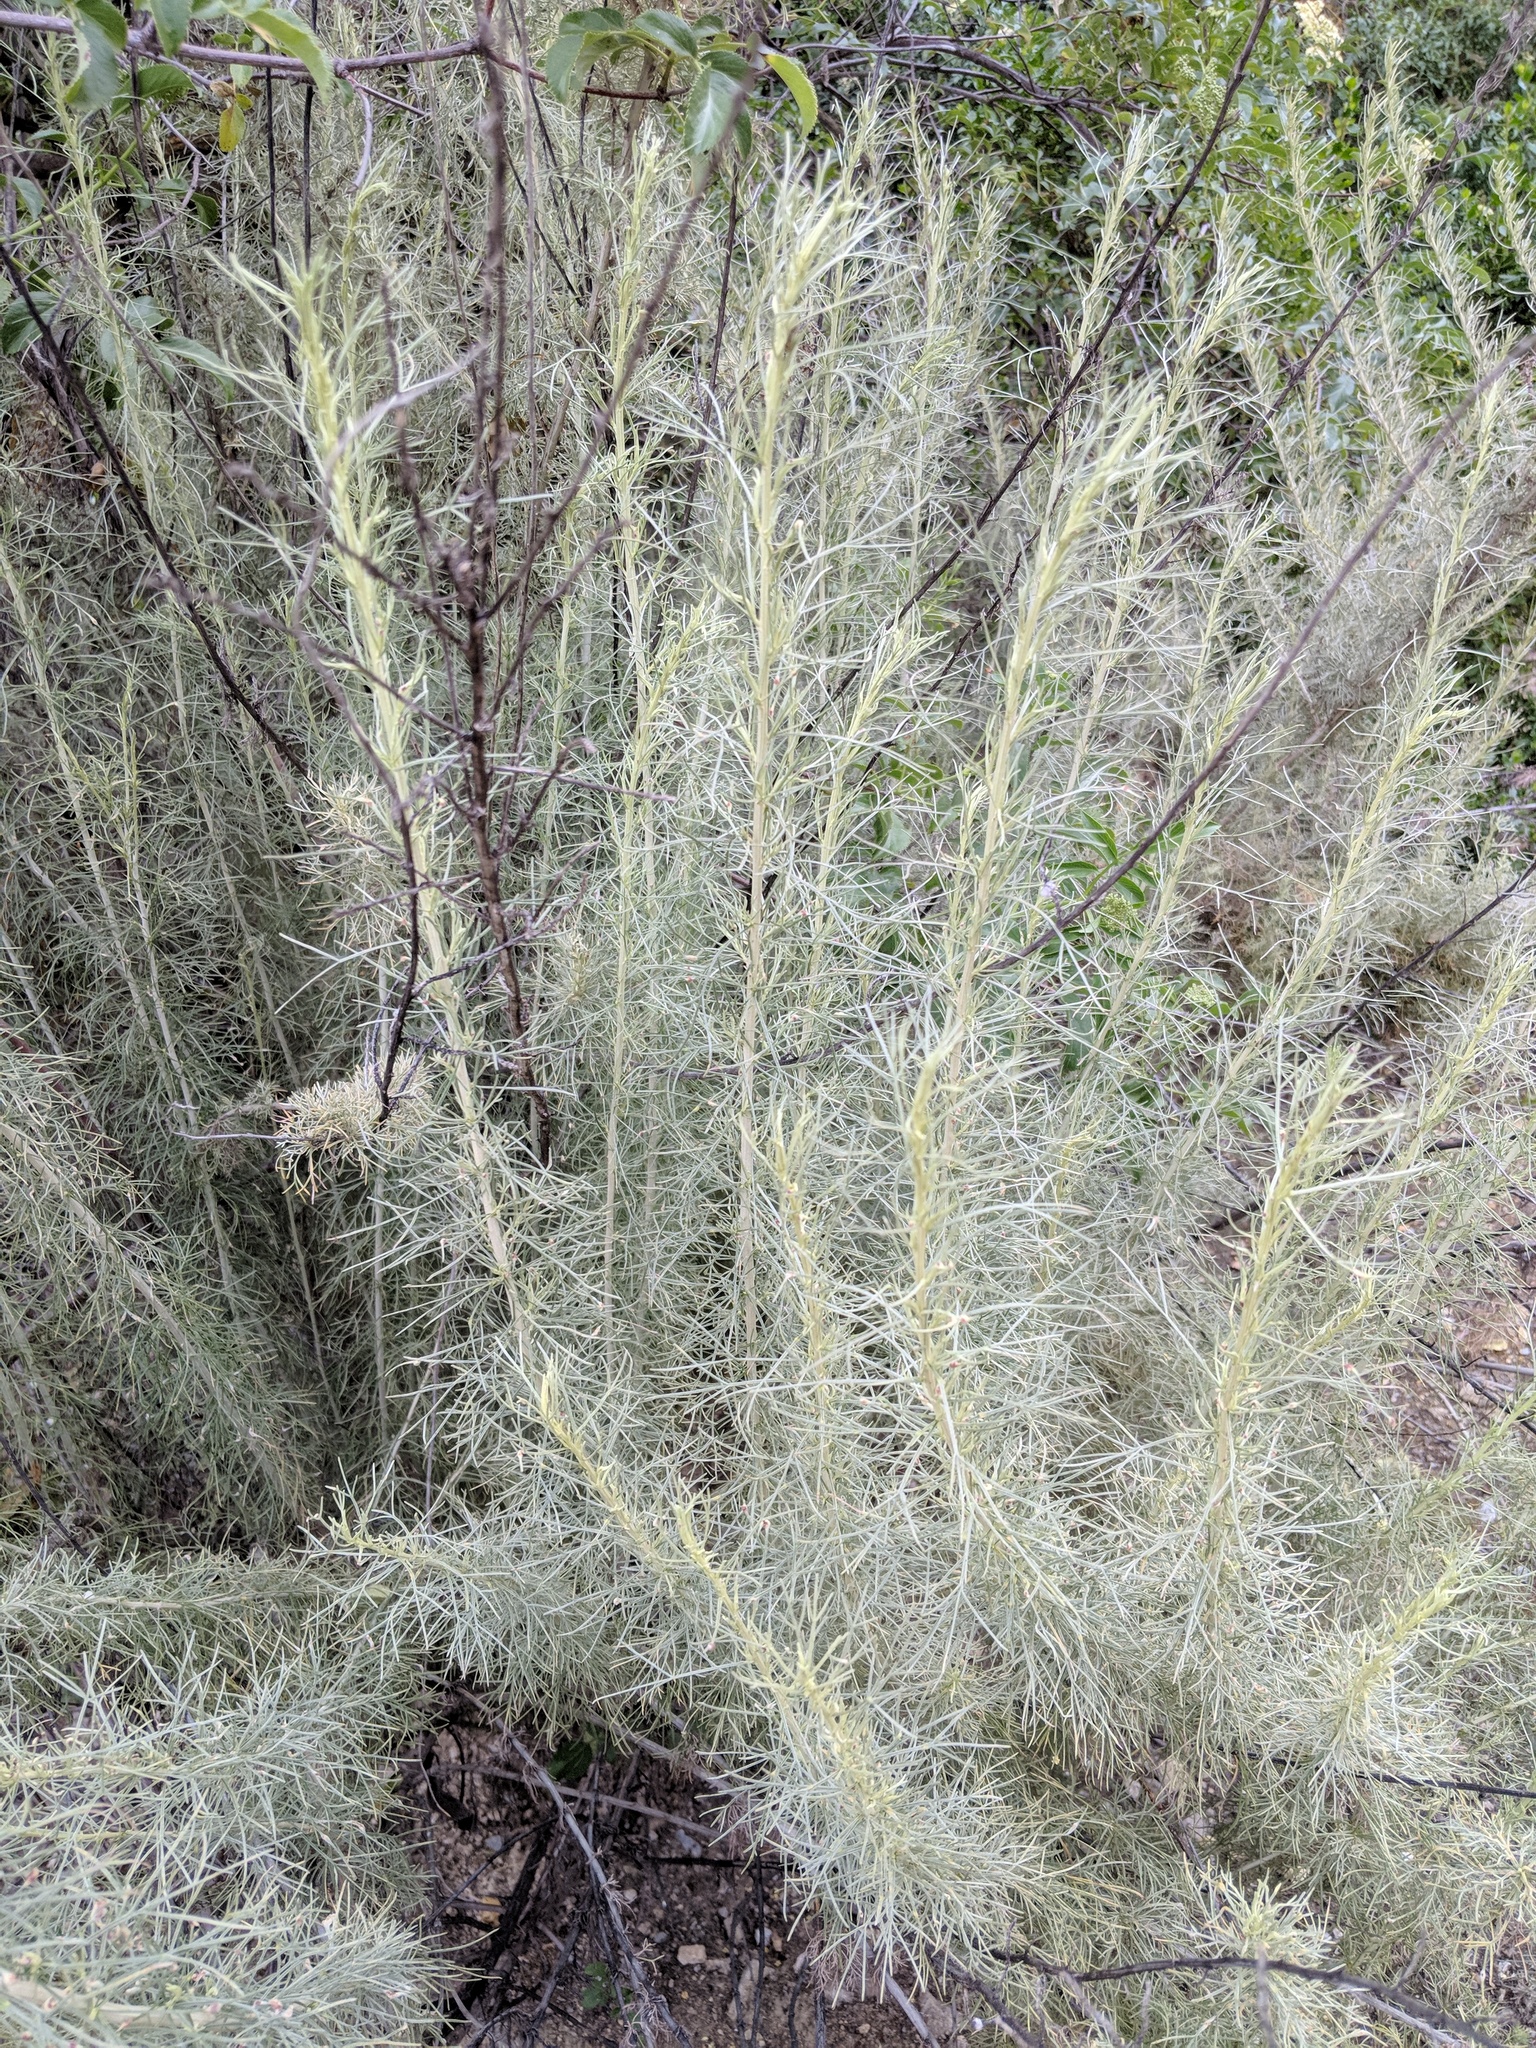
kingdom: Plantae
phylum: Tracheophyta
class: Magnoliopsida
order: Asterales
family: Asteraceae
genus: Artemisia
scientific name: Artemisia californica
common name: California sagebrush
